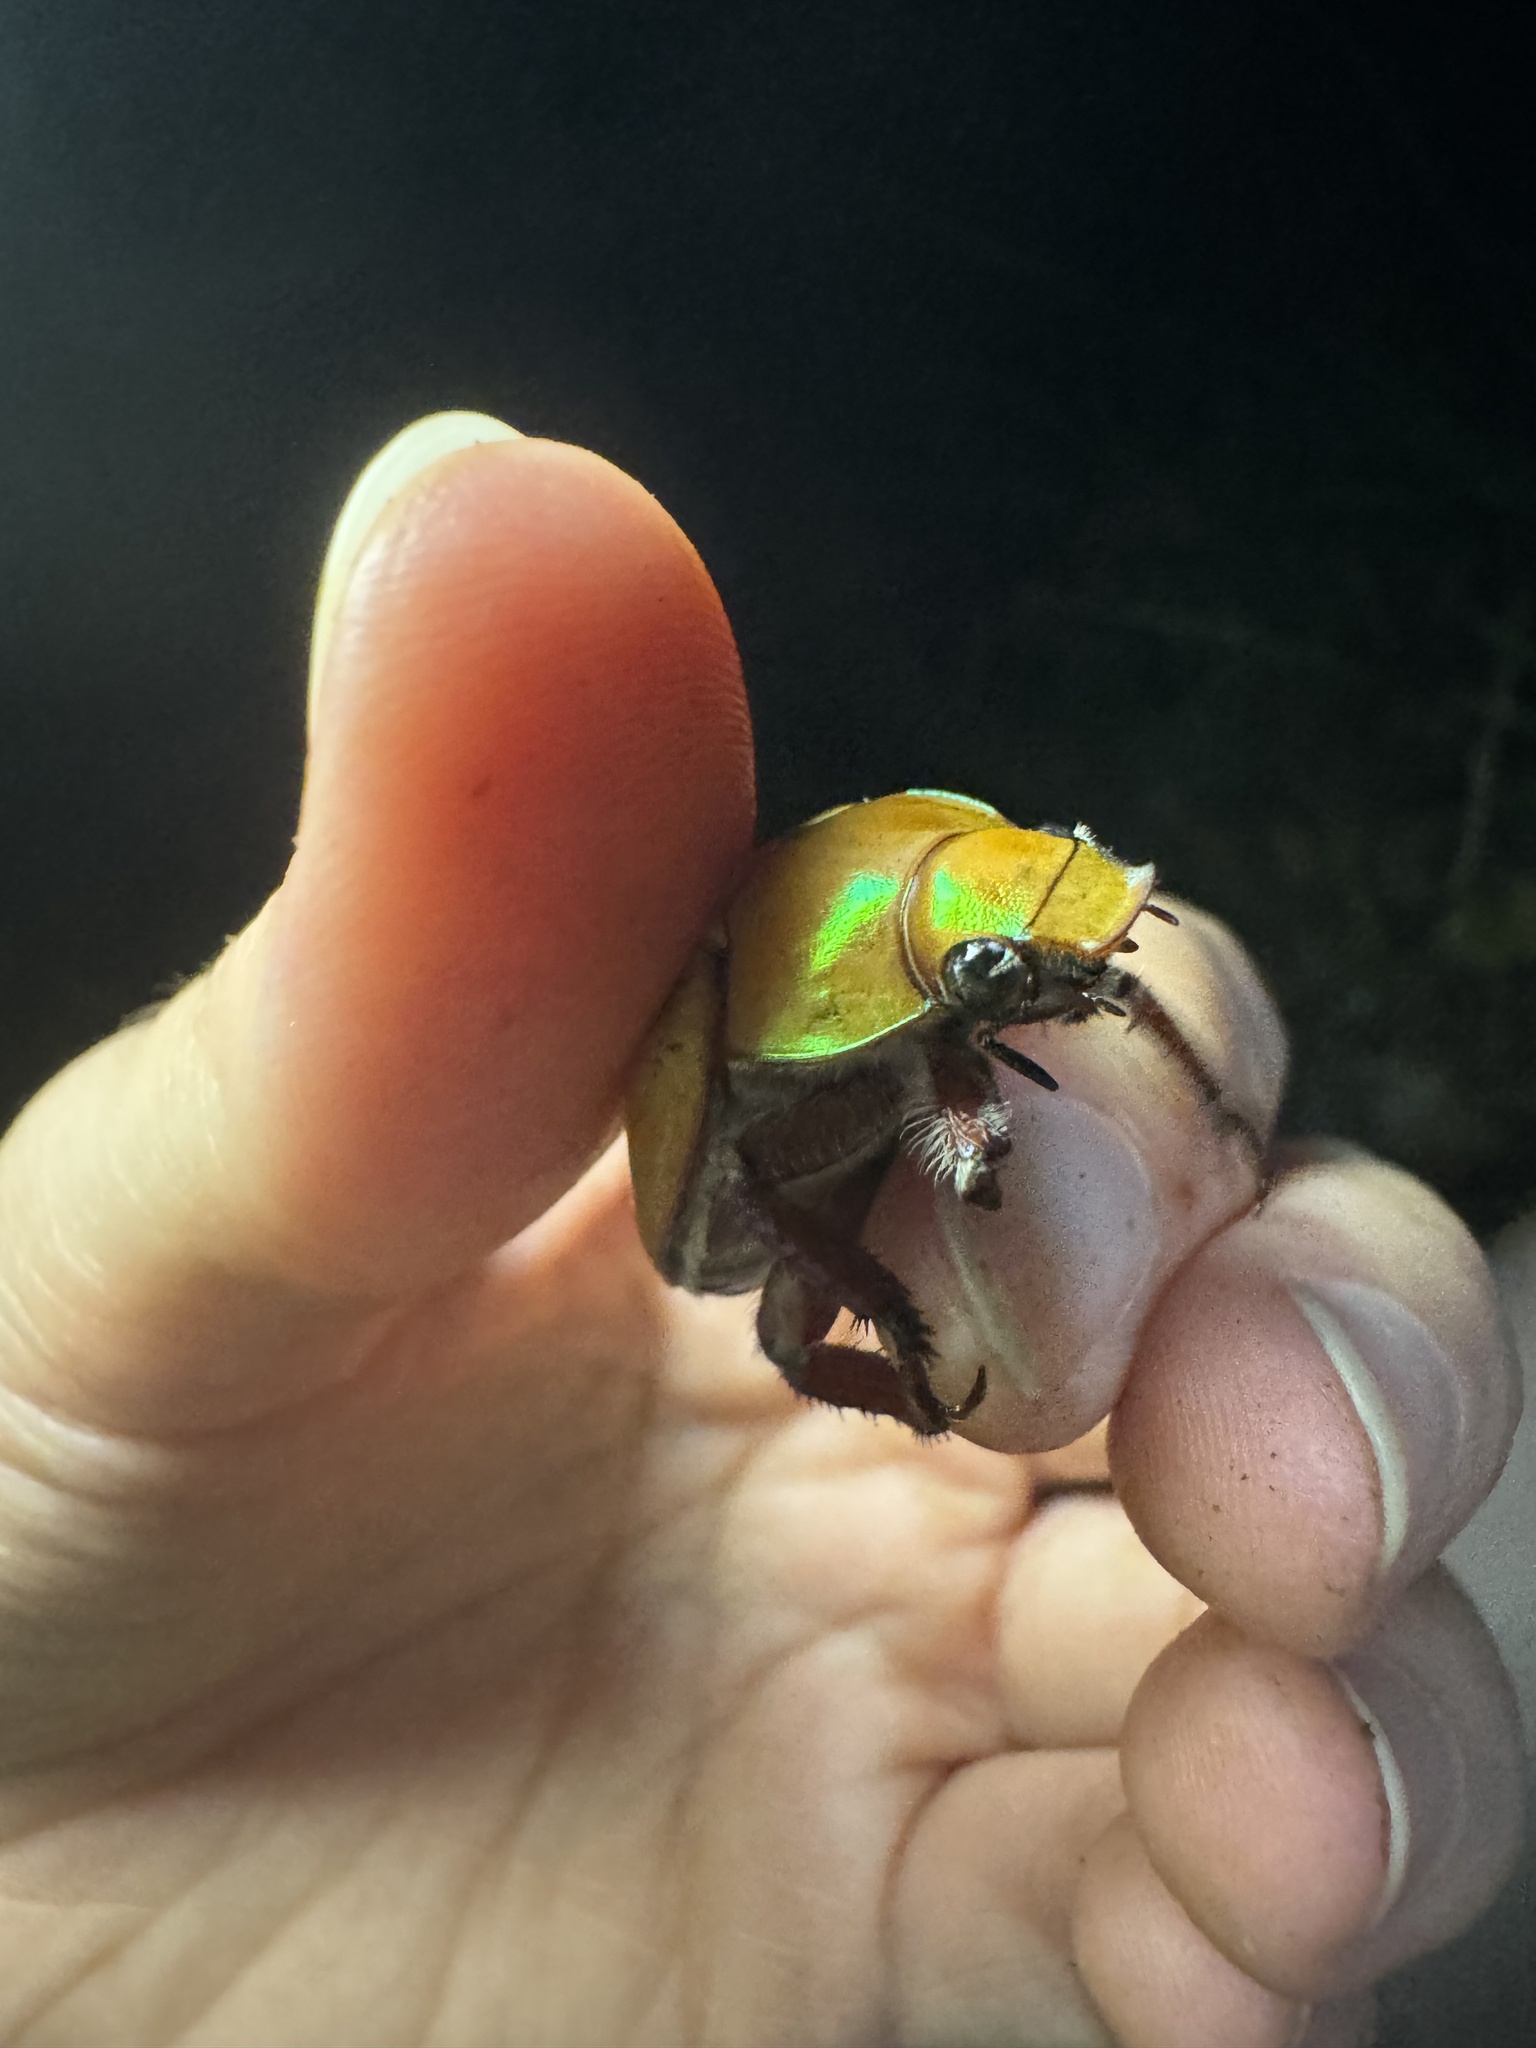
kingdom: Animalia
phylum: Arthropoda
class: Insecta
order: Coleoptera
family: Scarabaeidae
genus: Anoplognathus
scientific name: Anoplognathus olivieri
